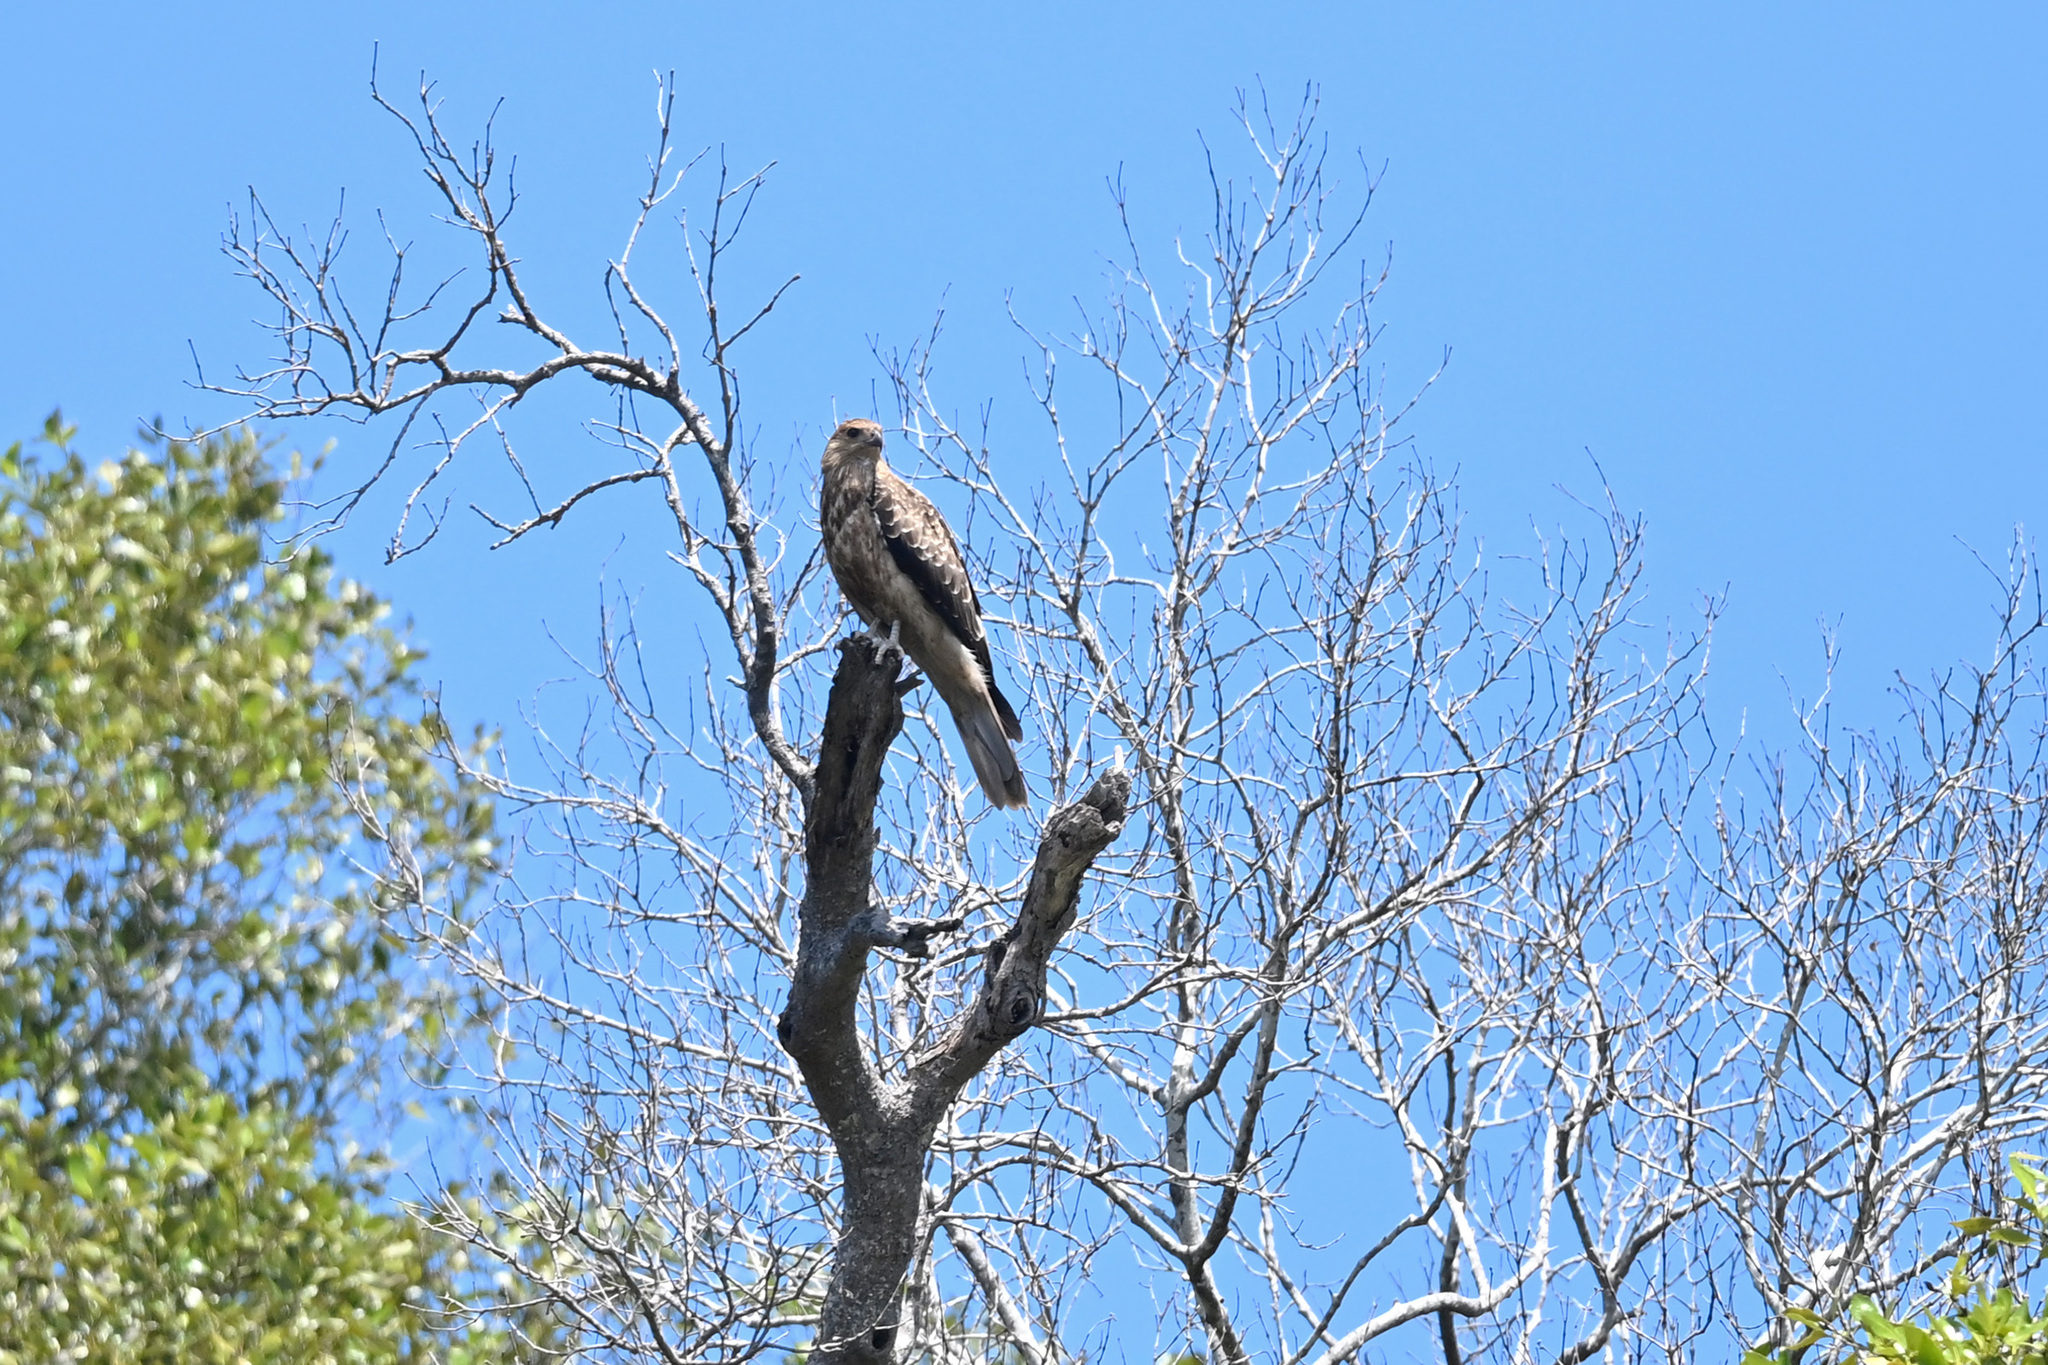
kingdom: Animalia
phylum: Chordata
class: Aves
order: Accipitriformes
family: Accipitridae
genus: Haliastur
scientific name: Haliastur sphenurus
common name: Whistling kite
